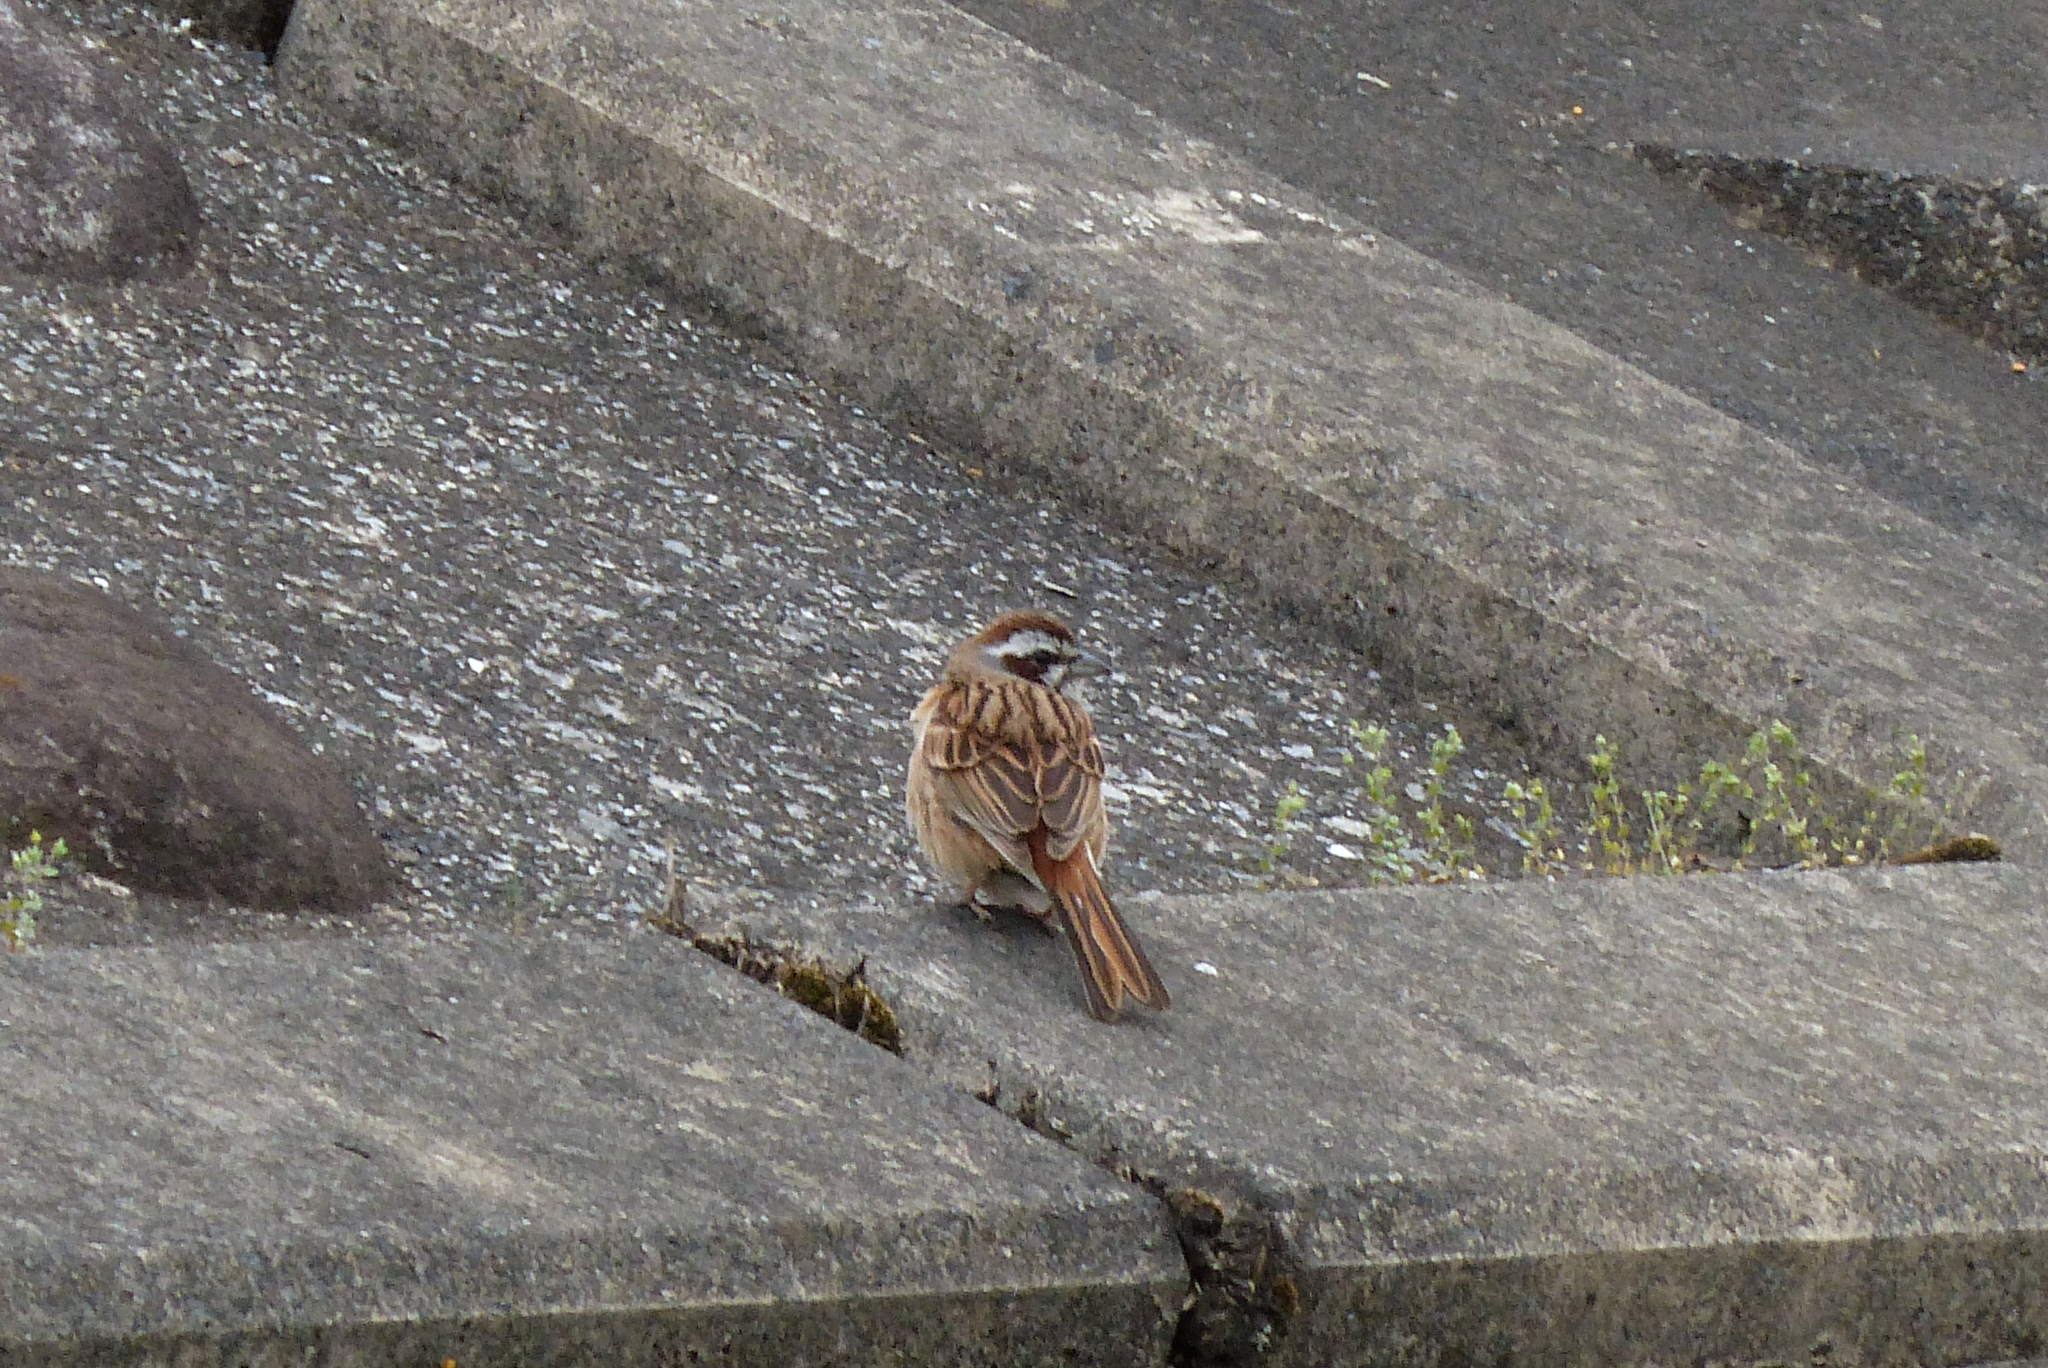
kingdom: Animalia
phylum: Chordata
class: Aves
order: Passeriformes
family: Emberizidae
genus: Emberiza
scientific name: Emberiza cioides
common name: Meadow bunting
